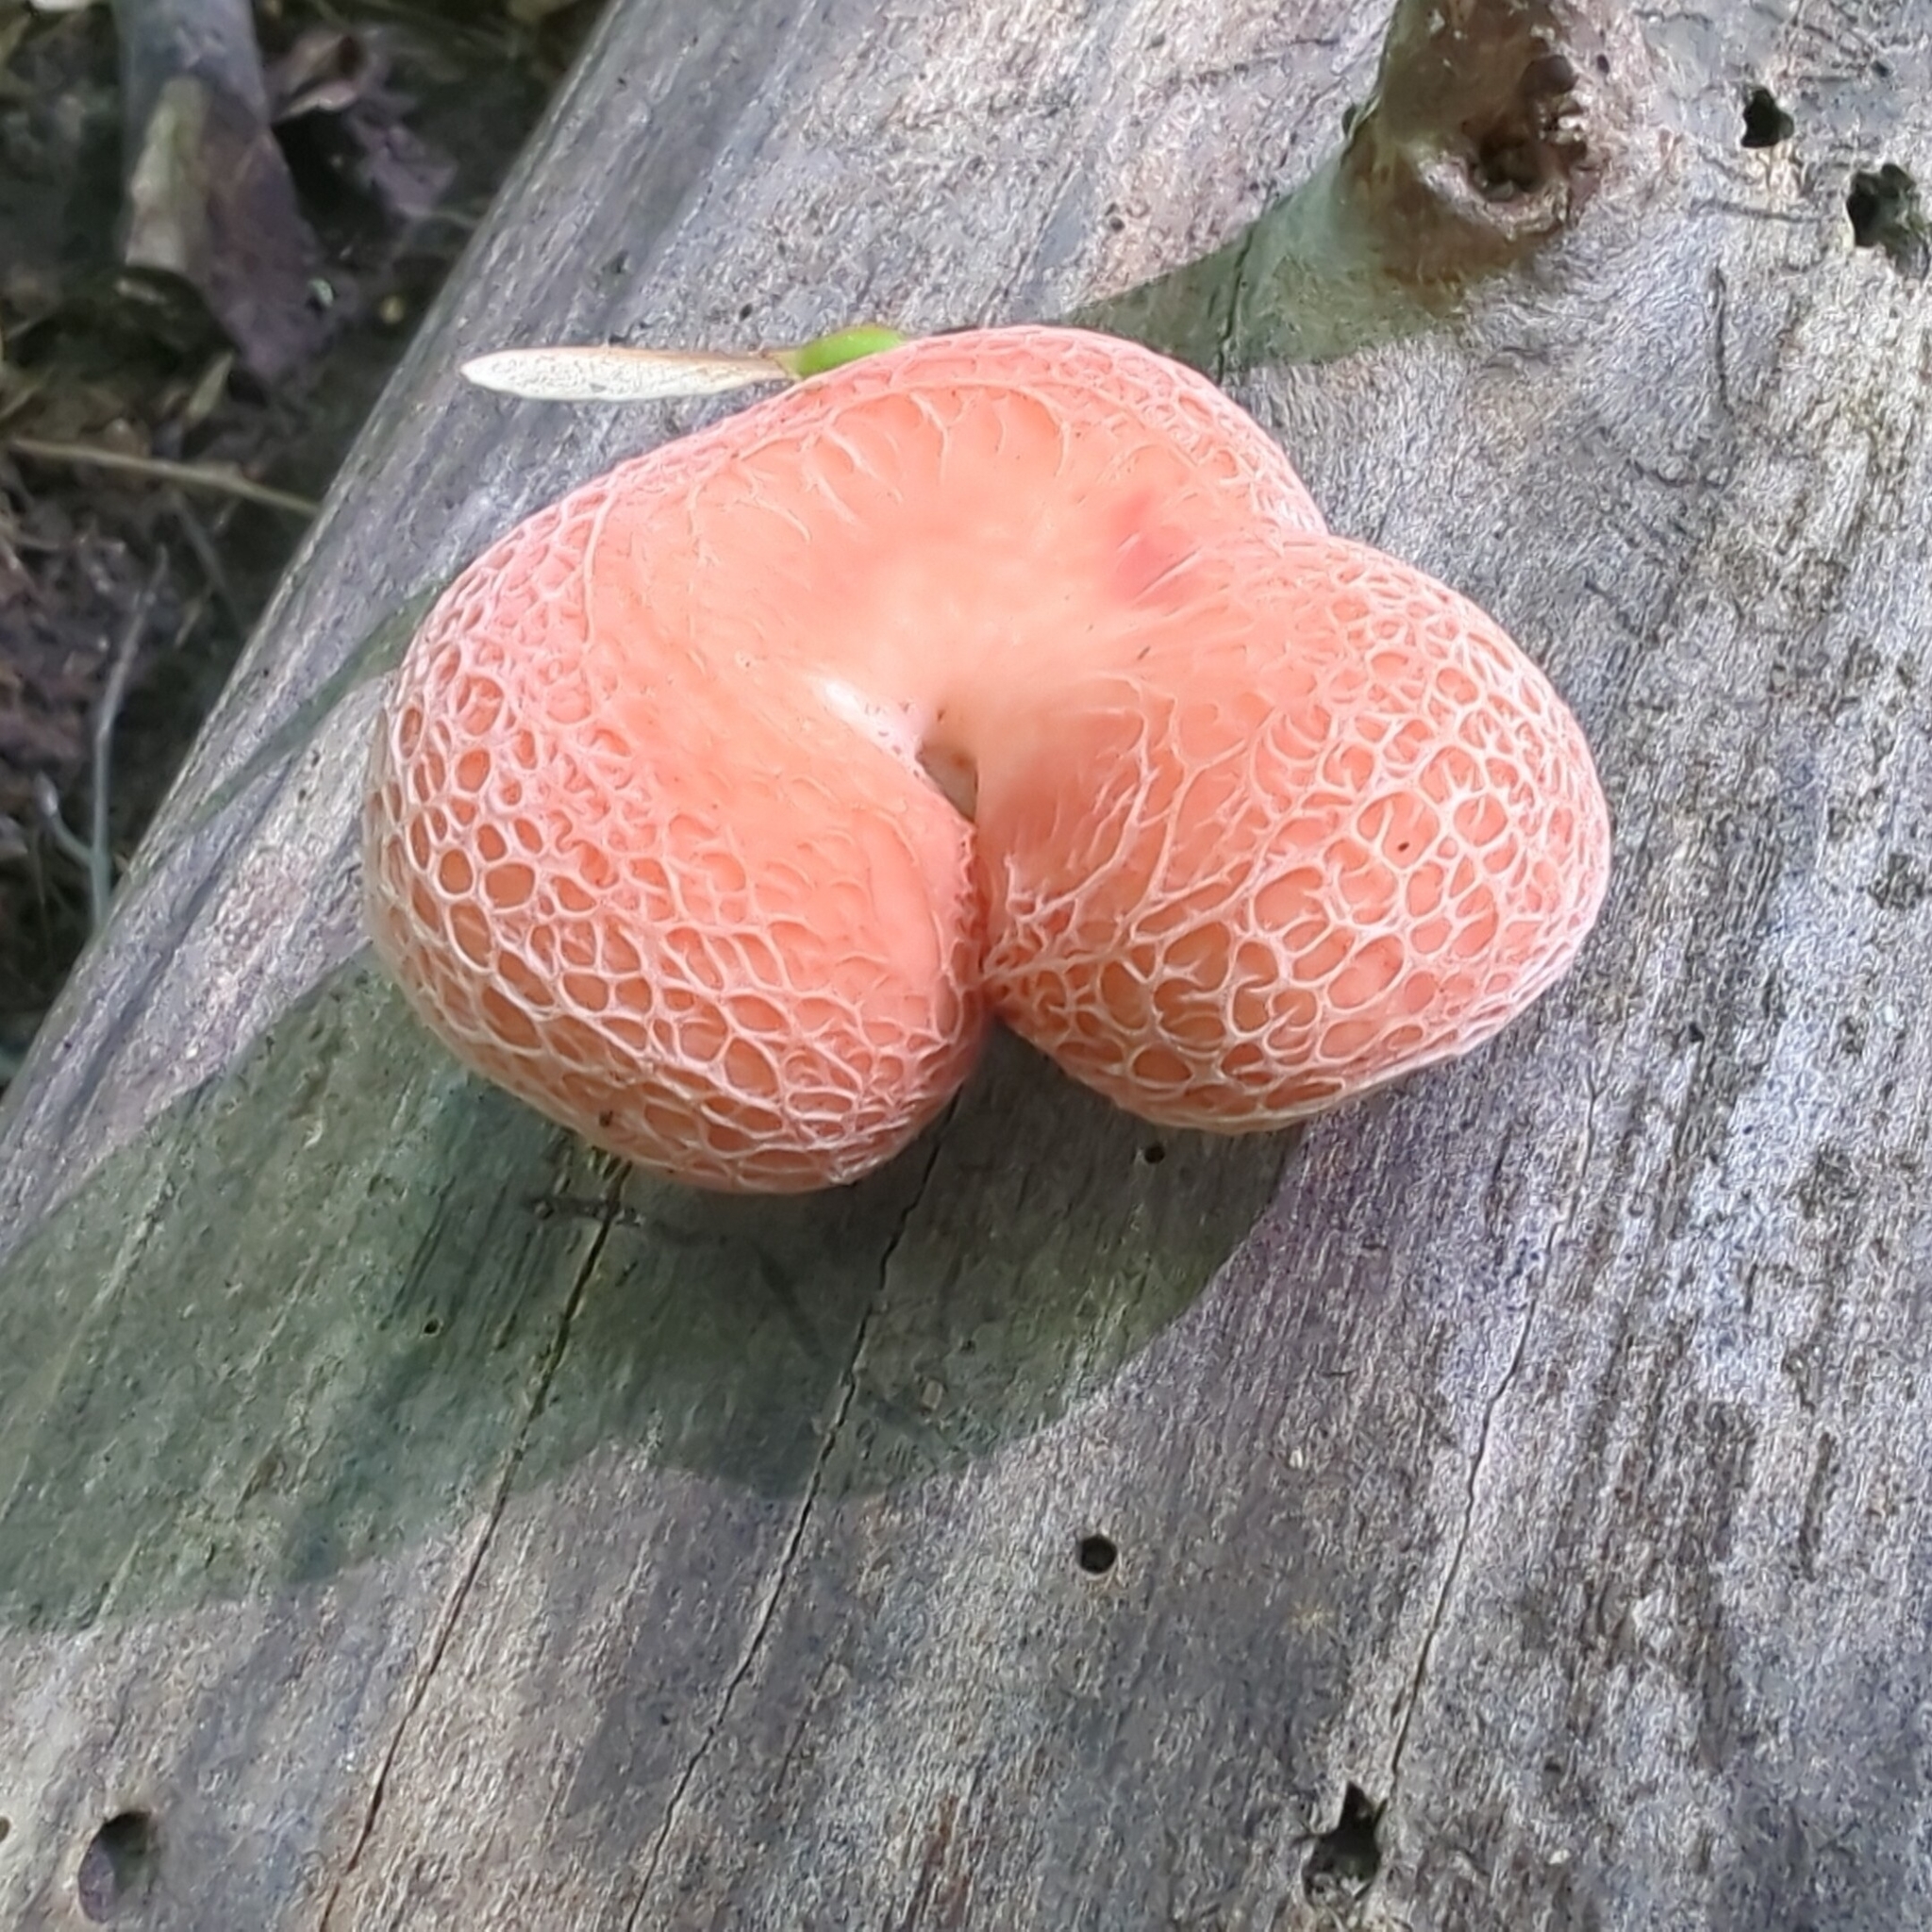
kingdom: Fungi
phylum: Basidiomycota
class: Agaricomycetes
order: Agaricales
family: Physalacriaceae
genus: Rhodotus
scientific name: Rhodotus palmatus
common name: Wrinkled peach
